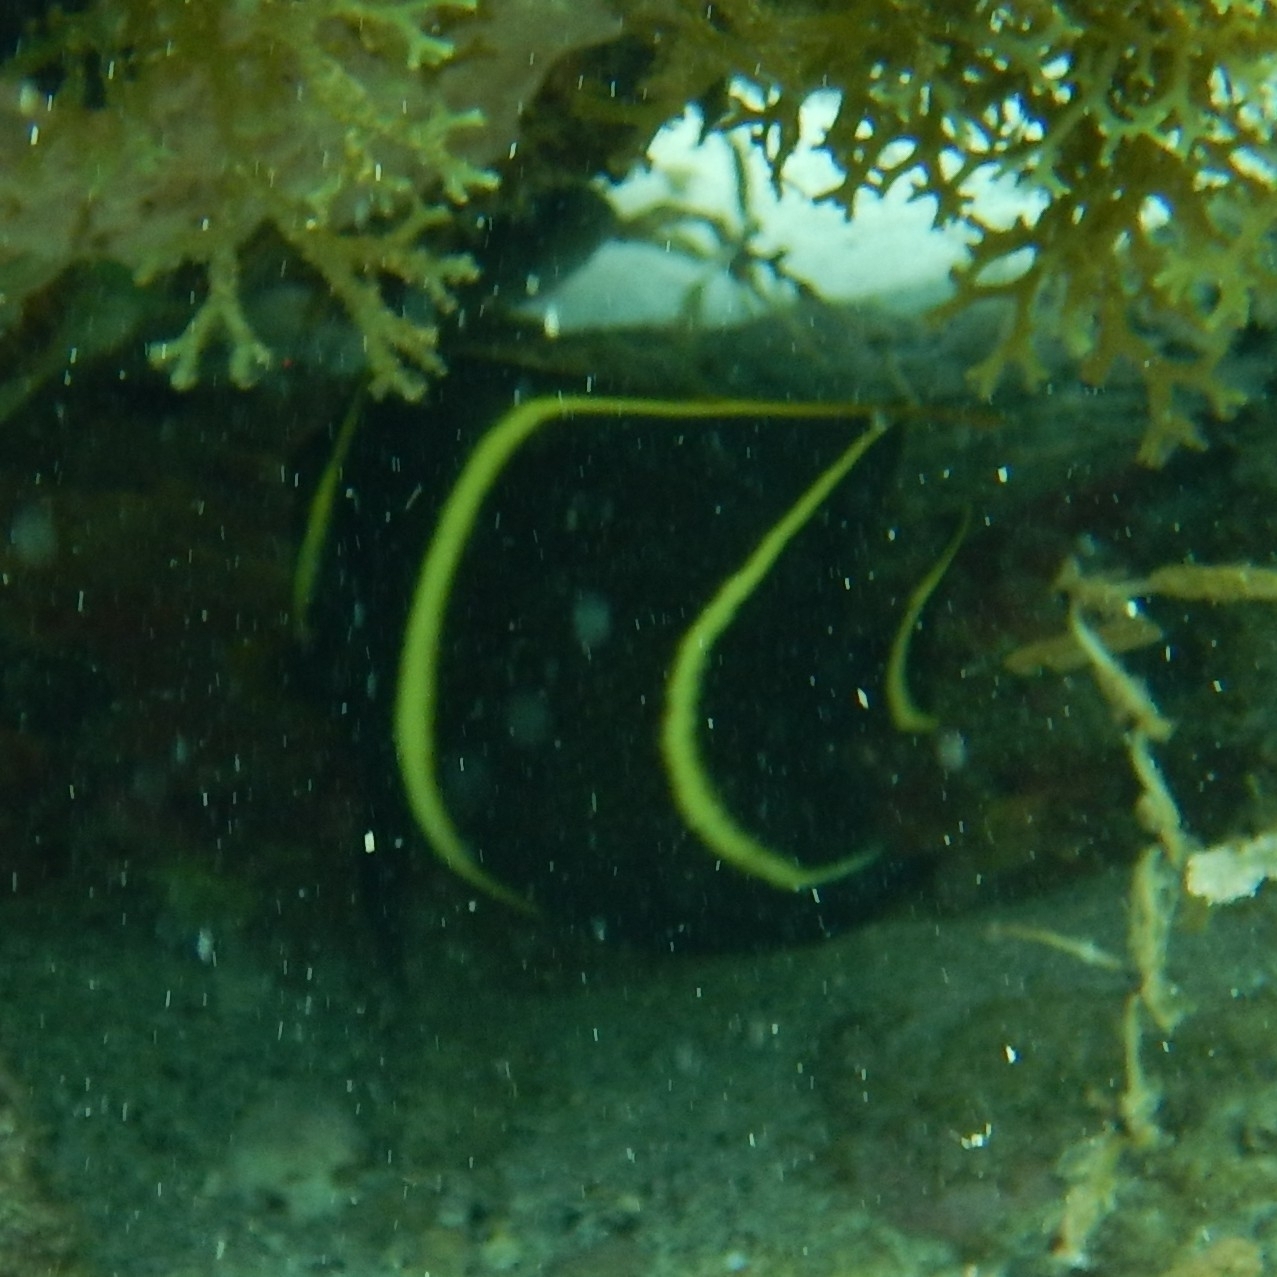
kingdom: Animalia
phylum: Chordata
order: Perciformes
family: Pomacanthidae
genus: Pomacanthus
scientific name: Pomacanthus paru
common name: French angelfish
